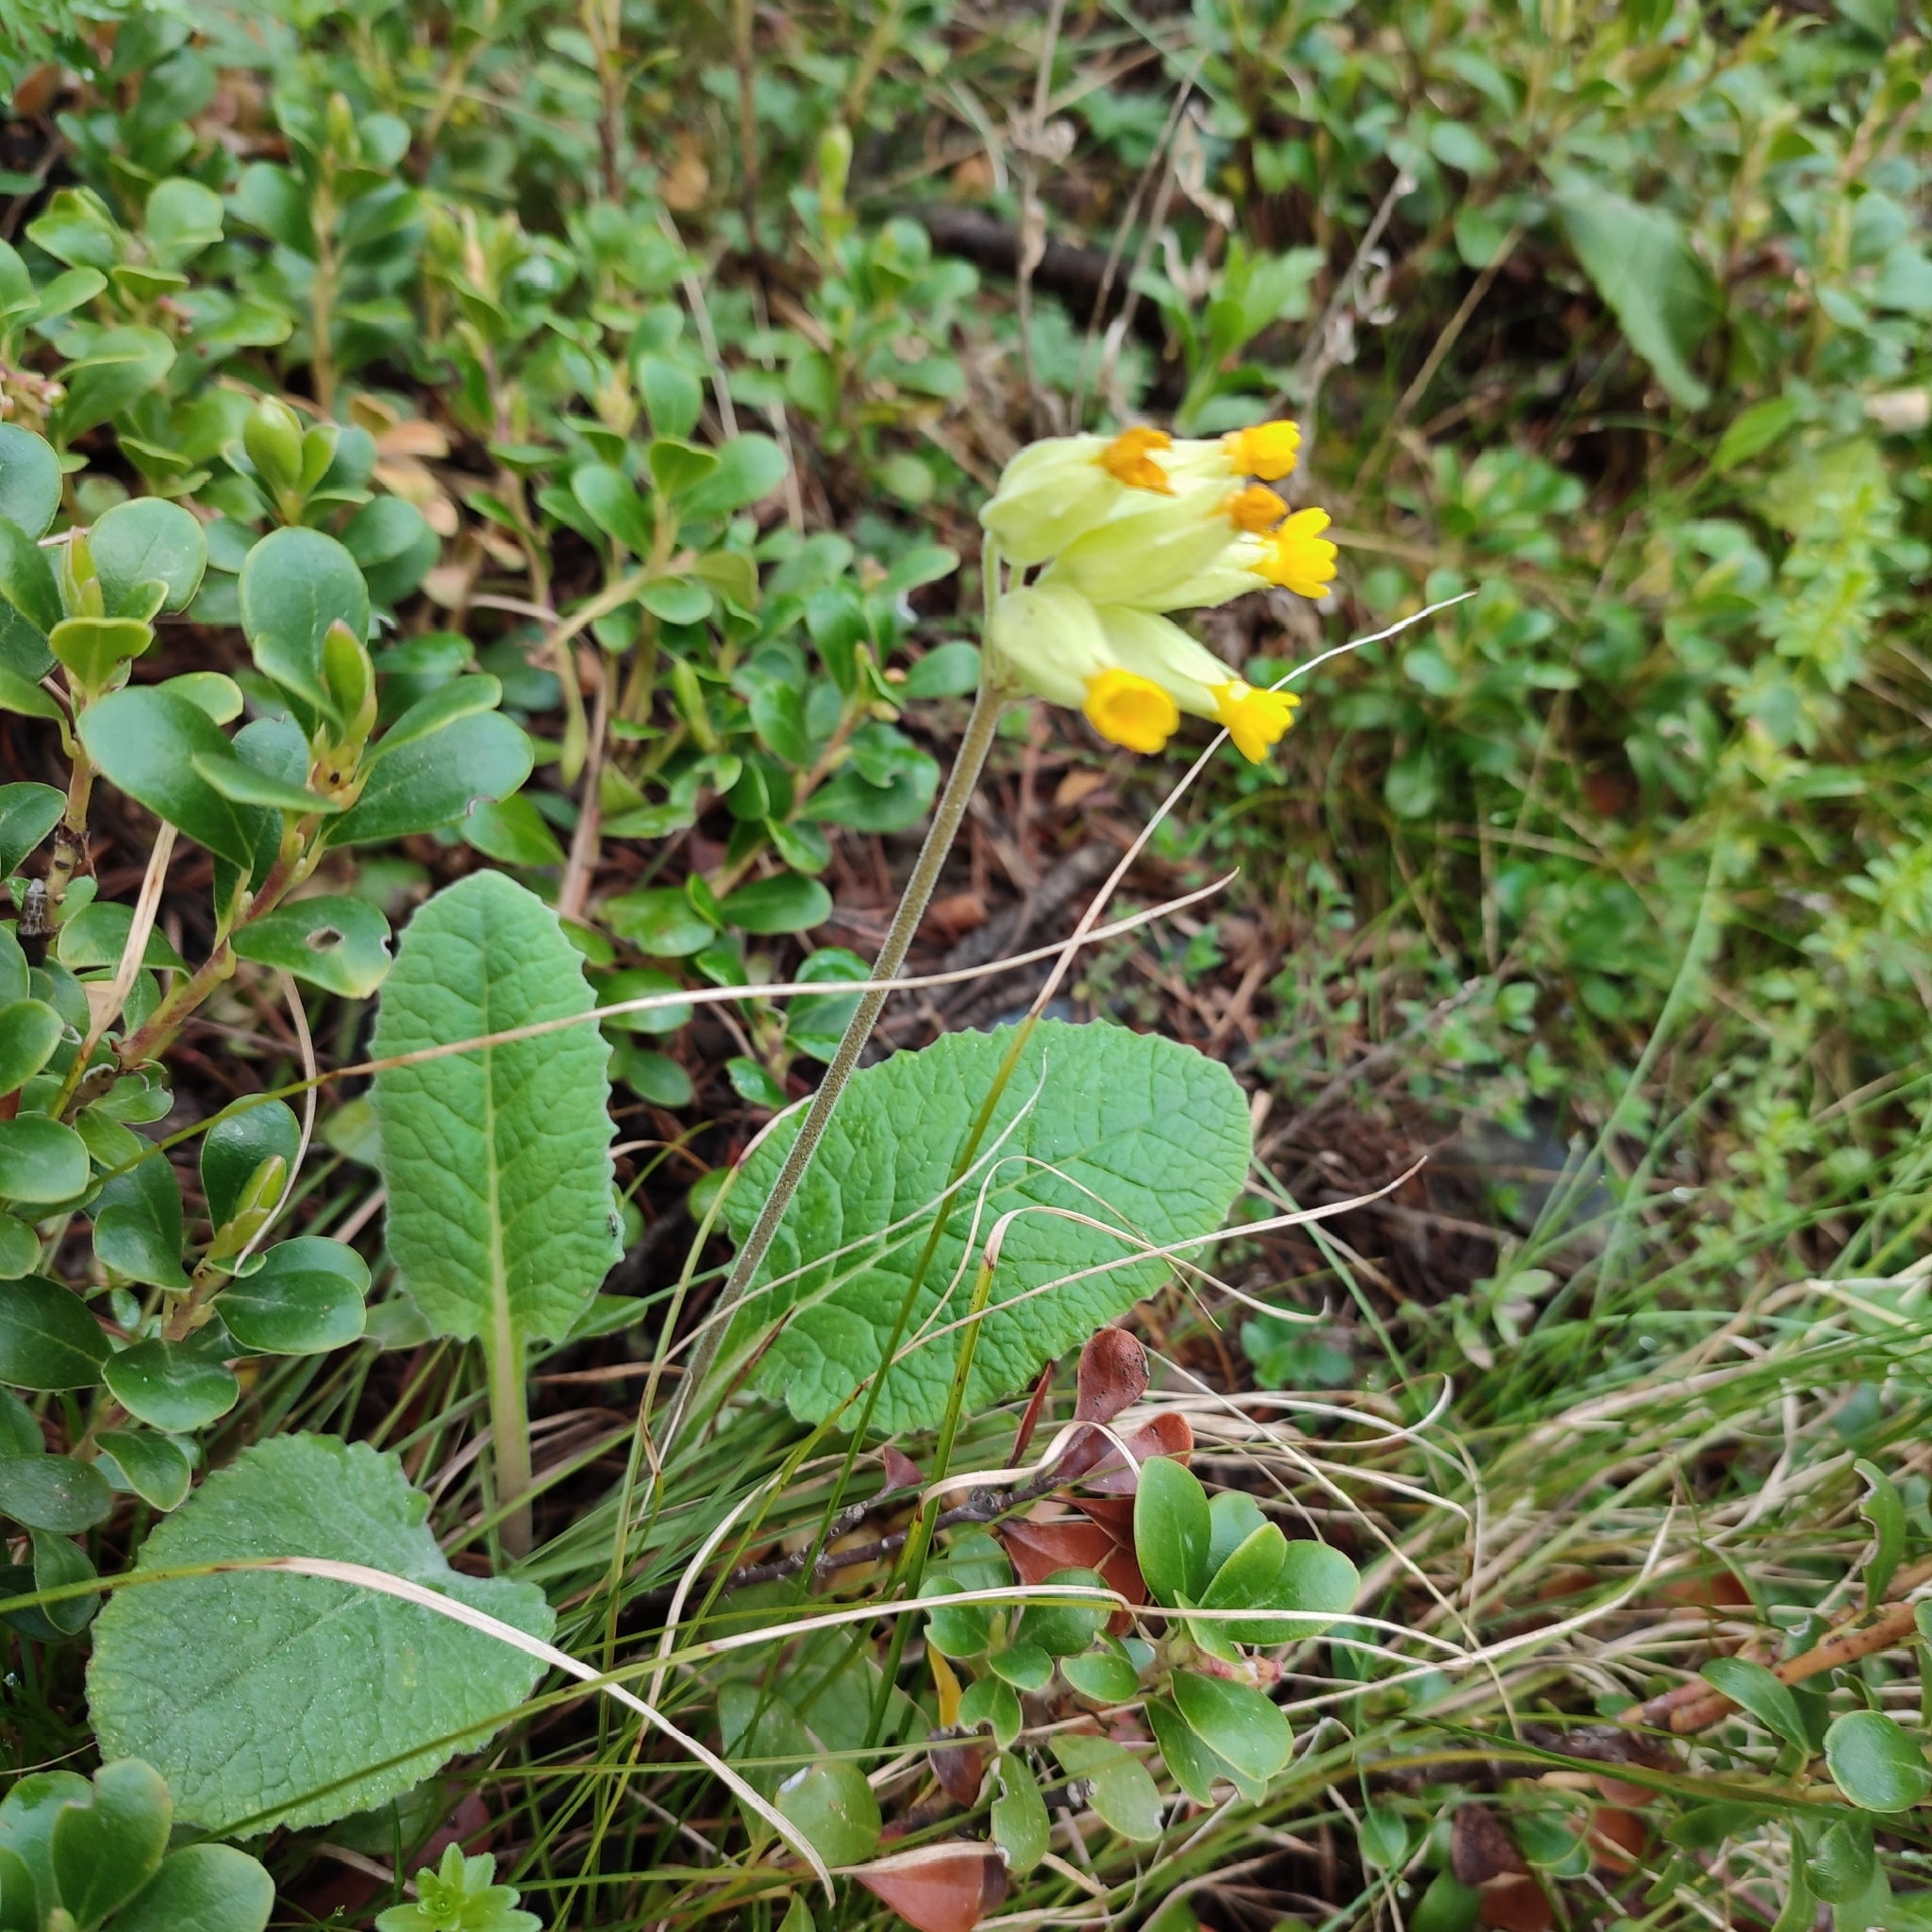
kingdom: Plantae
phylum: Tracheophyta
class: Magnoliopsida
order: Ericales
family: Primulaceae
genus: Primula
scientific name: Primula veris
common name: Cowslip
